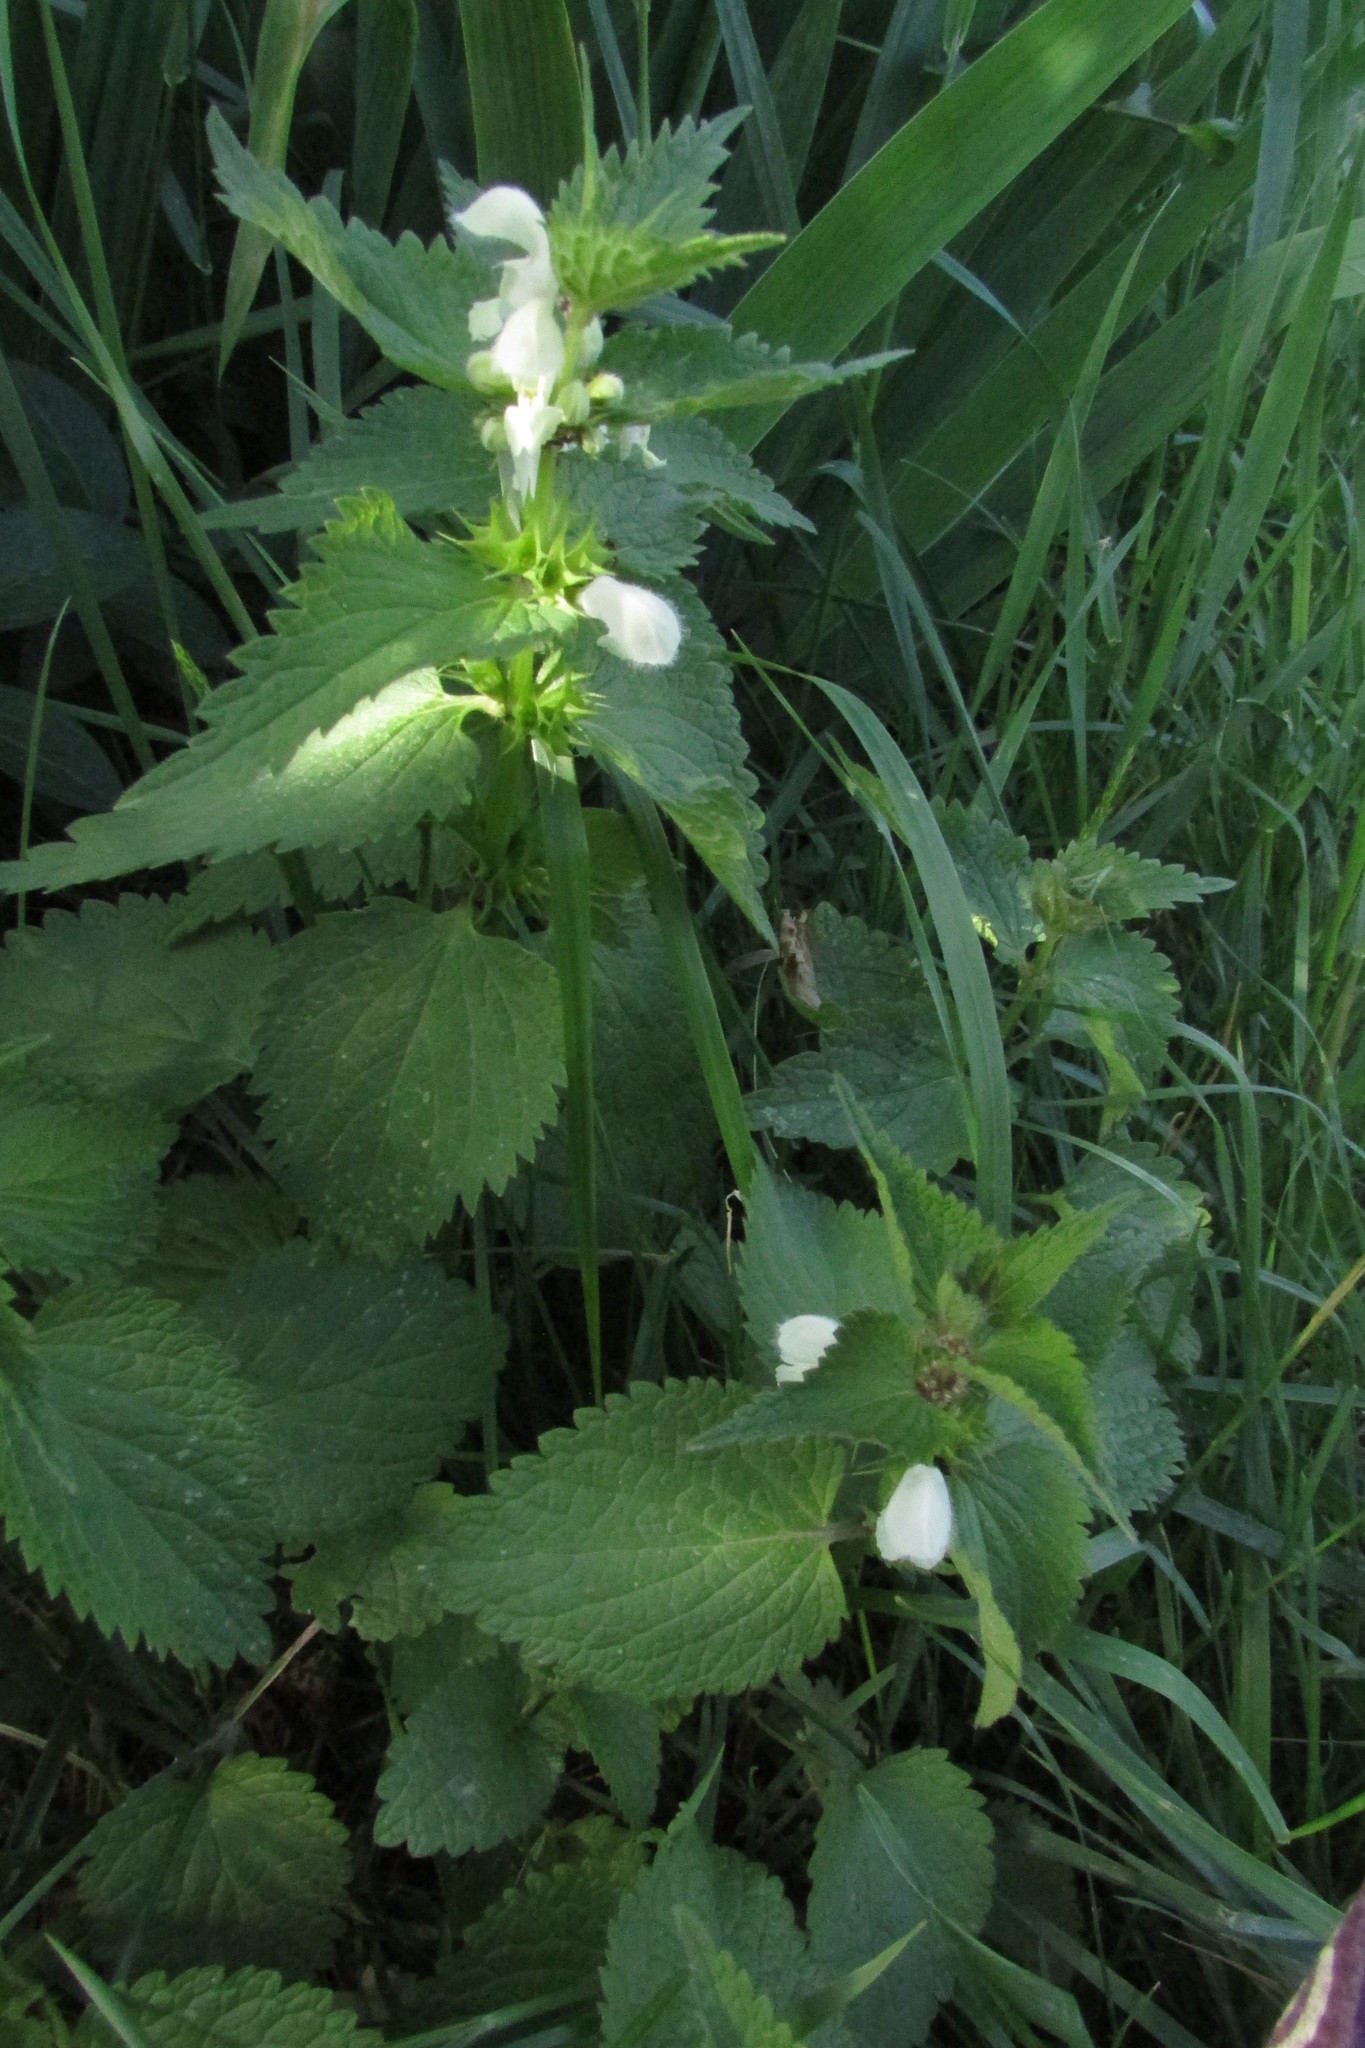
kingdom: Plantae
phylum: Tracheophyta
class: Magnoliopsida
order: Lamiales
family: Lamiaceae
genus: Lamium
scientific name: Lamium album
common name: White dead-nettle
